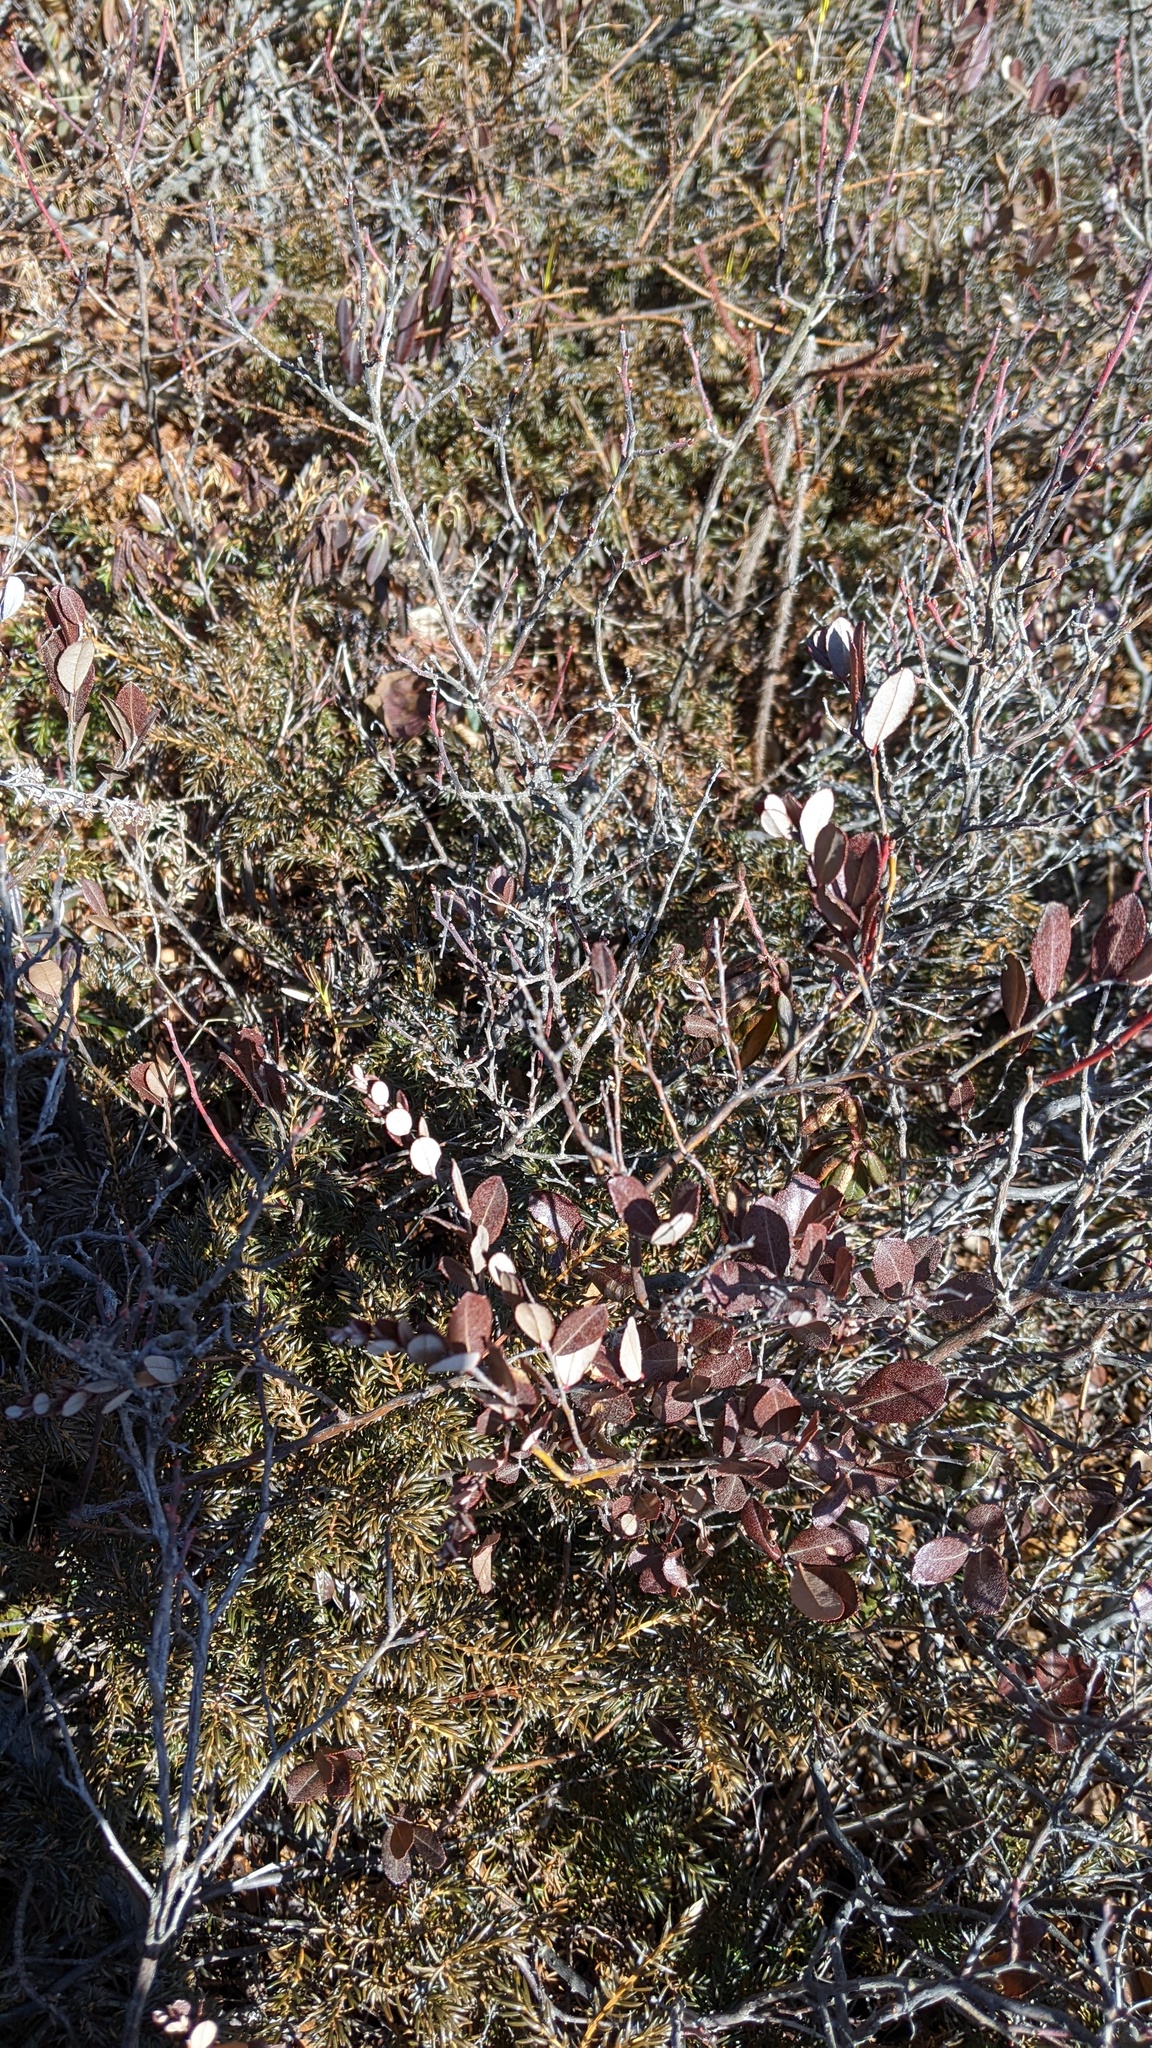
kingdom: Plantae
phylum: Tracheophyta
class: Magnoliopsida
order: Ericales
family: Ericaceae
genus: Chamaedaphne
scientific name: Chamaedaphne calyculata
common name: Leatherleaf
